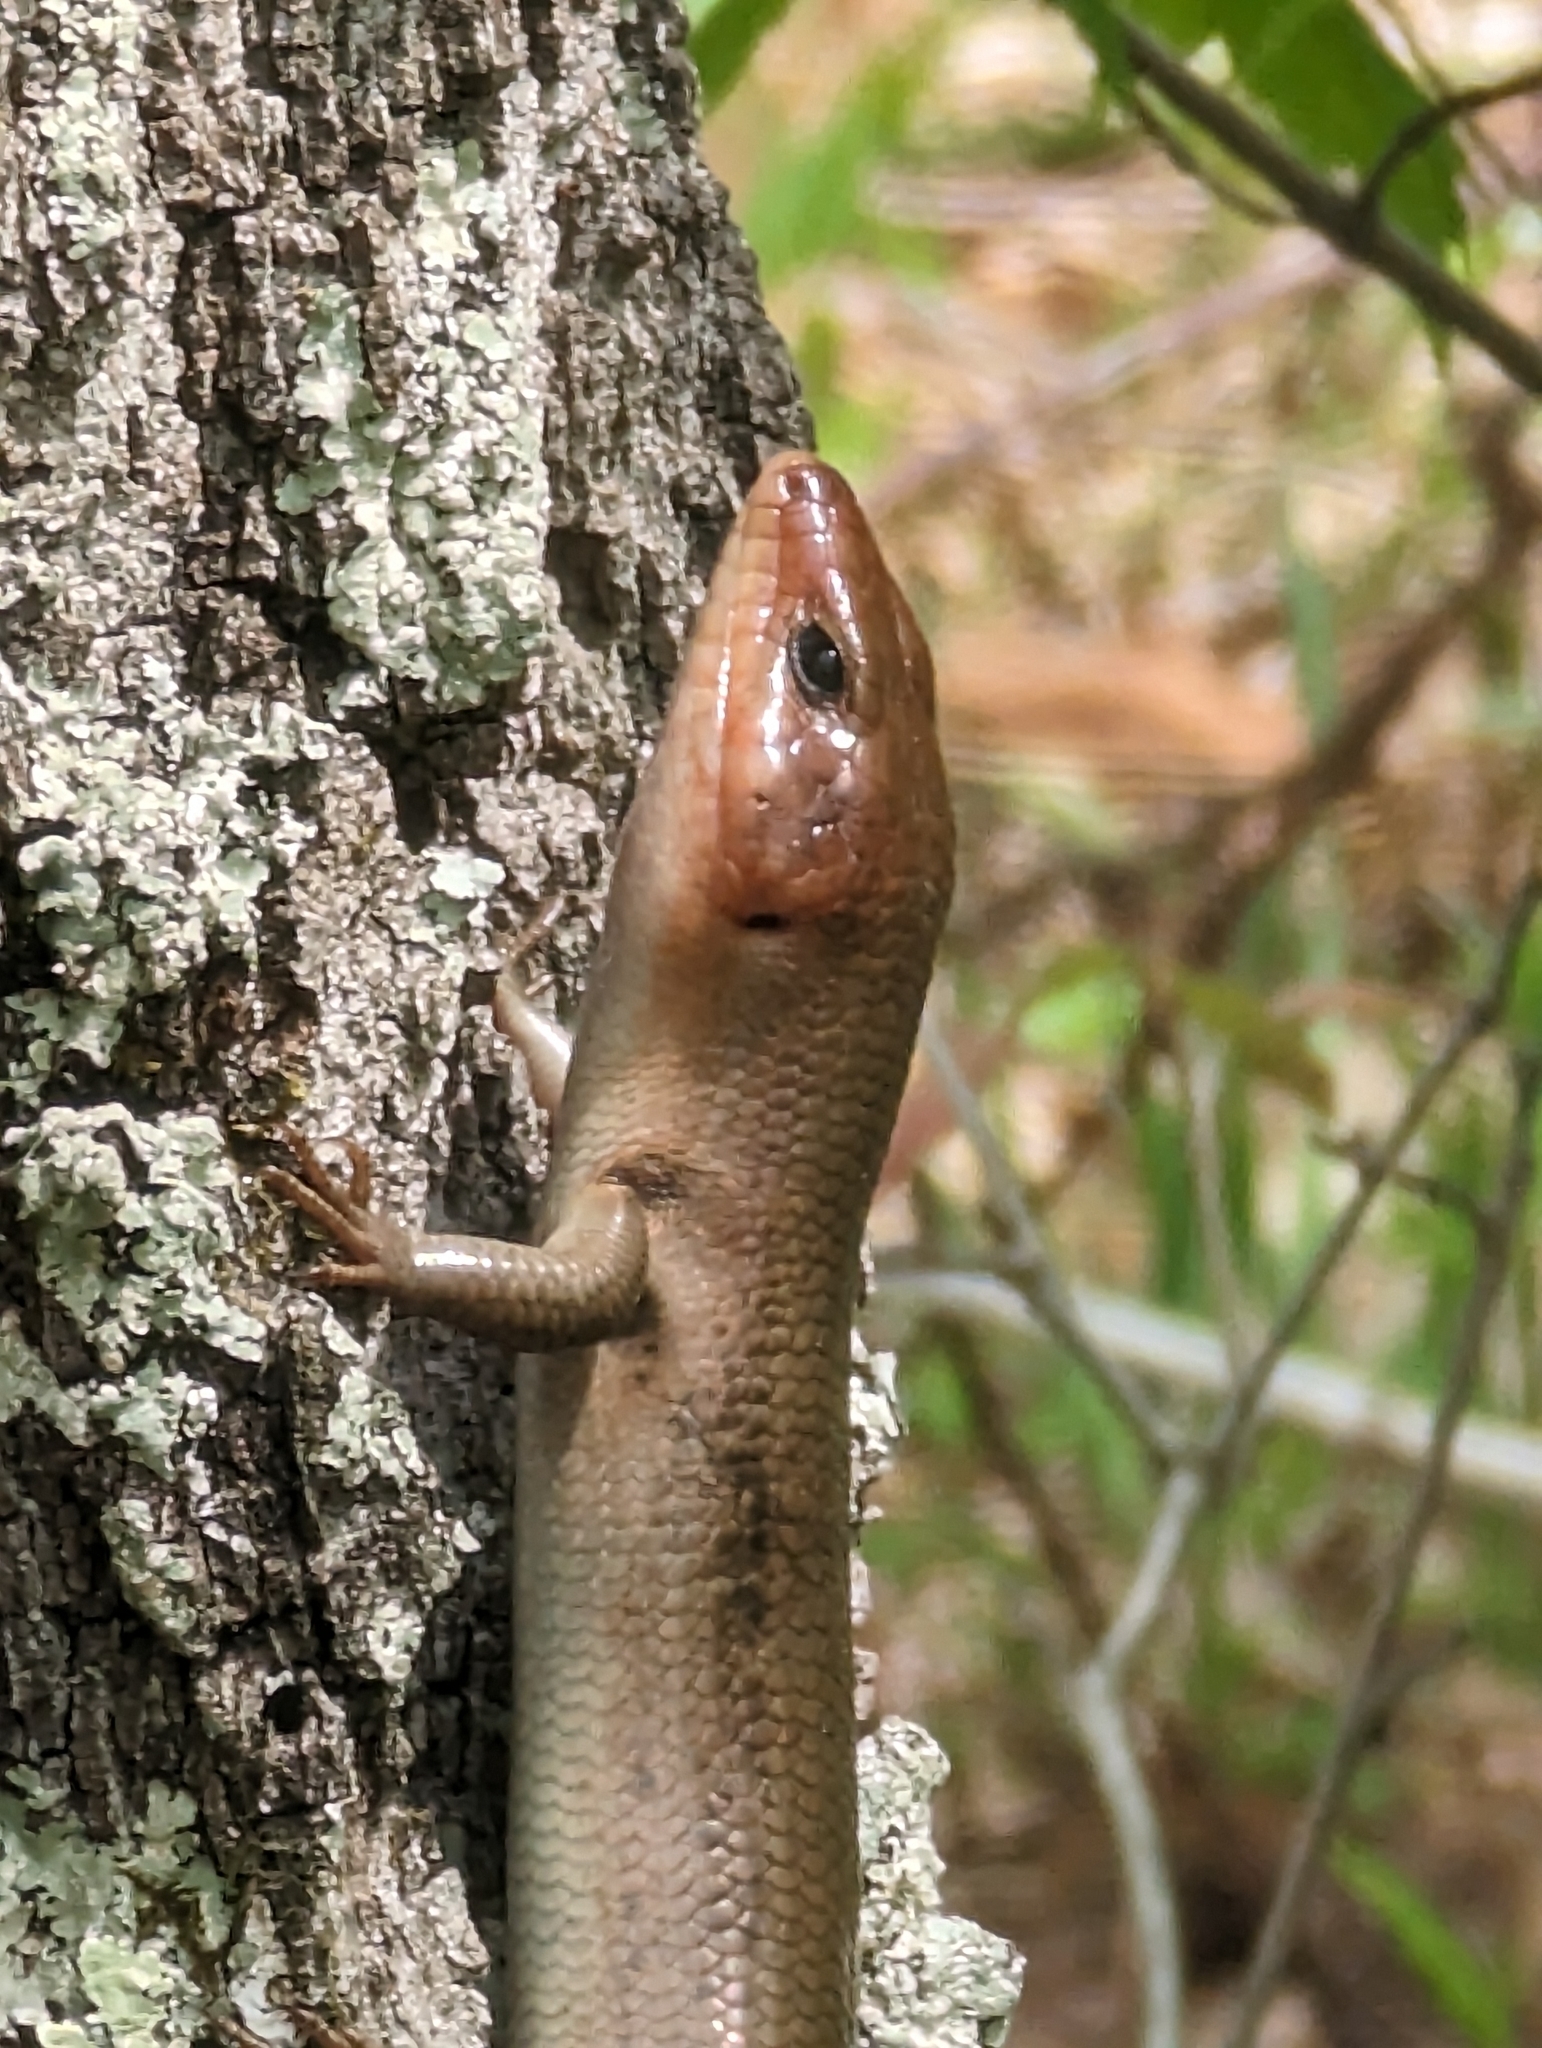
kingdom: Animalia
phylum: Chordata
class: Squamata
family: Scincidae
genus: Plestiodon
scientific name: Plestiodon laticeps
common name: Broadhead skink
